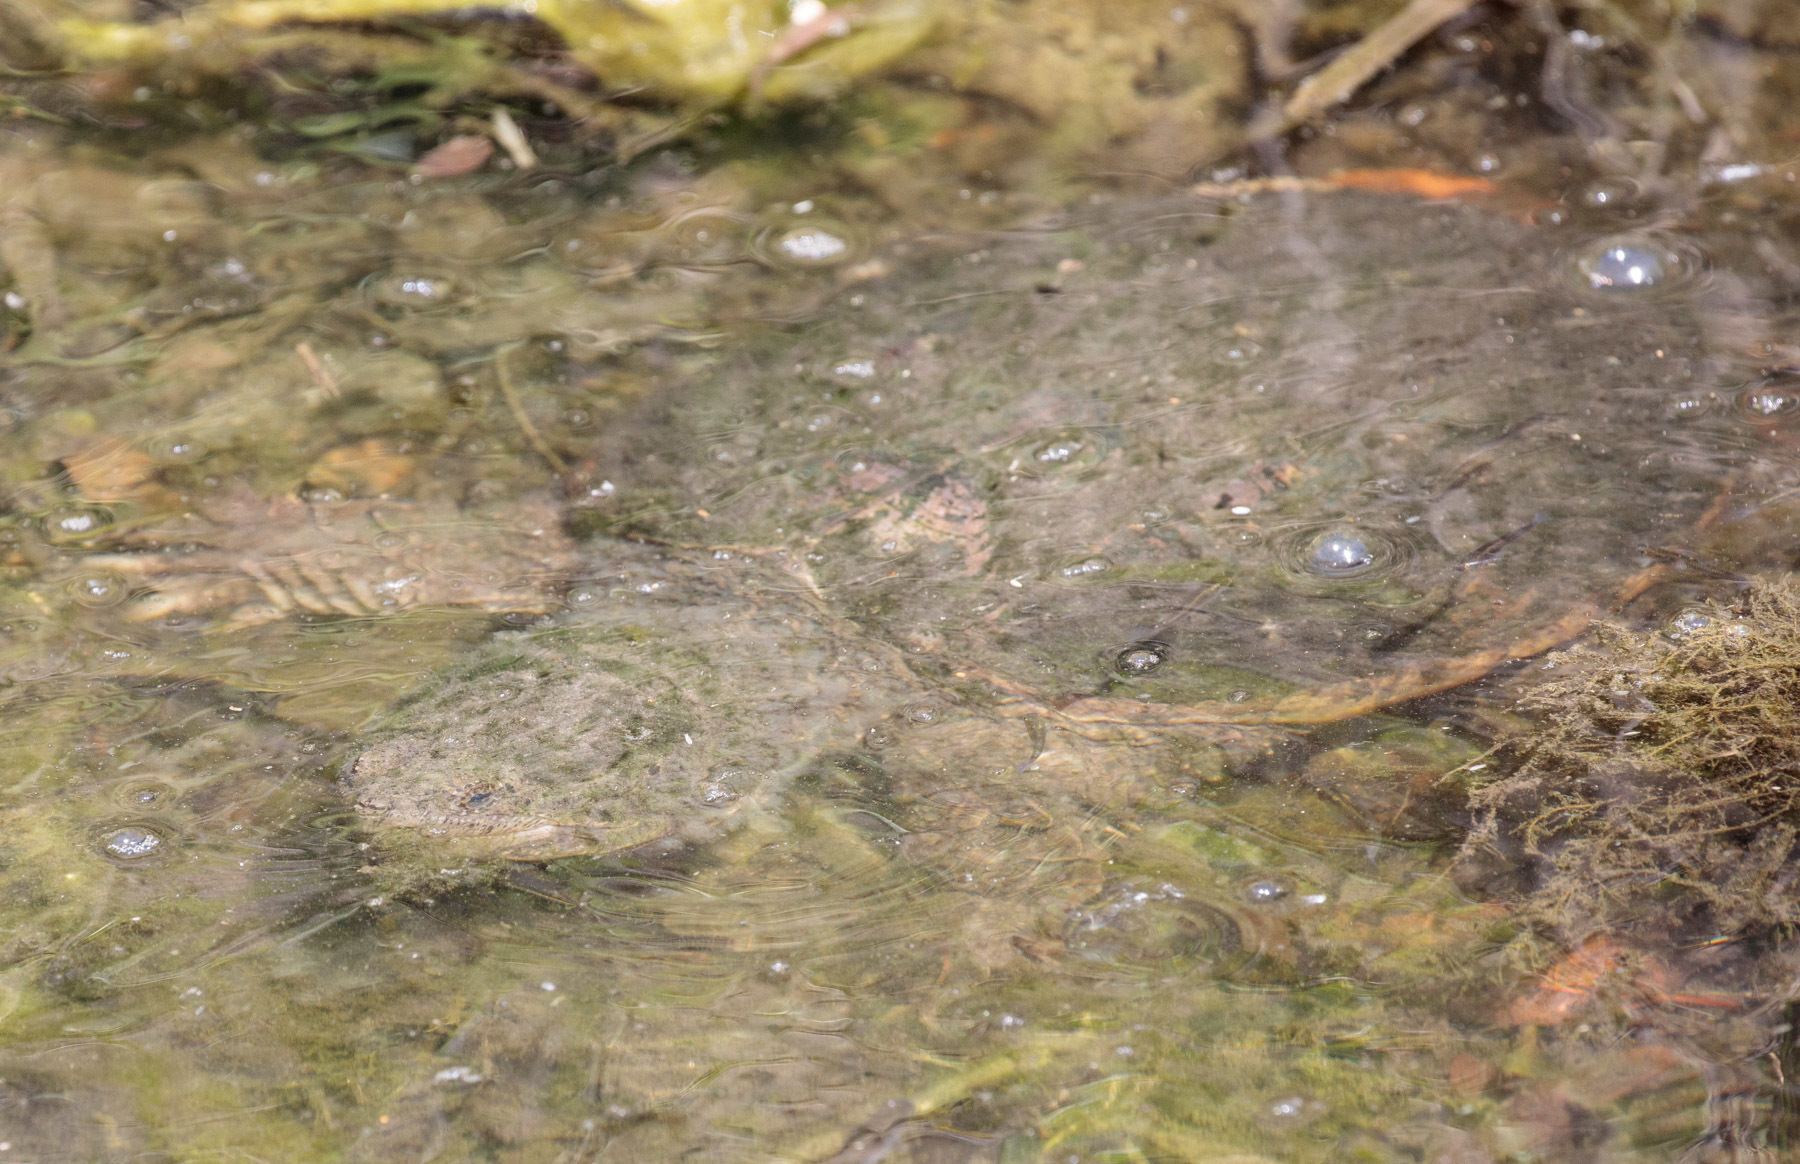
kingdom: Animalia
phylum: Chordata
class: Testudines
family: Chelydridae
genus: Chelydra
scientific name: Chelydra serpentina
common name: Common snapping turtle
